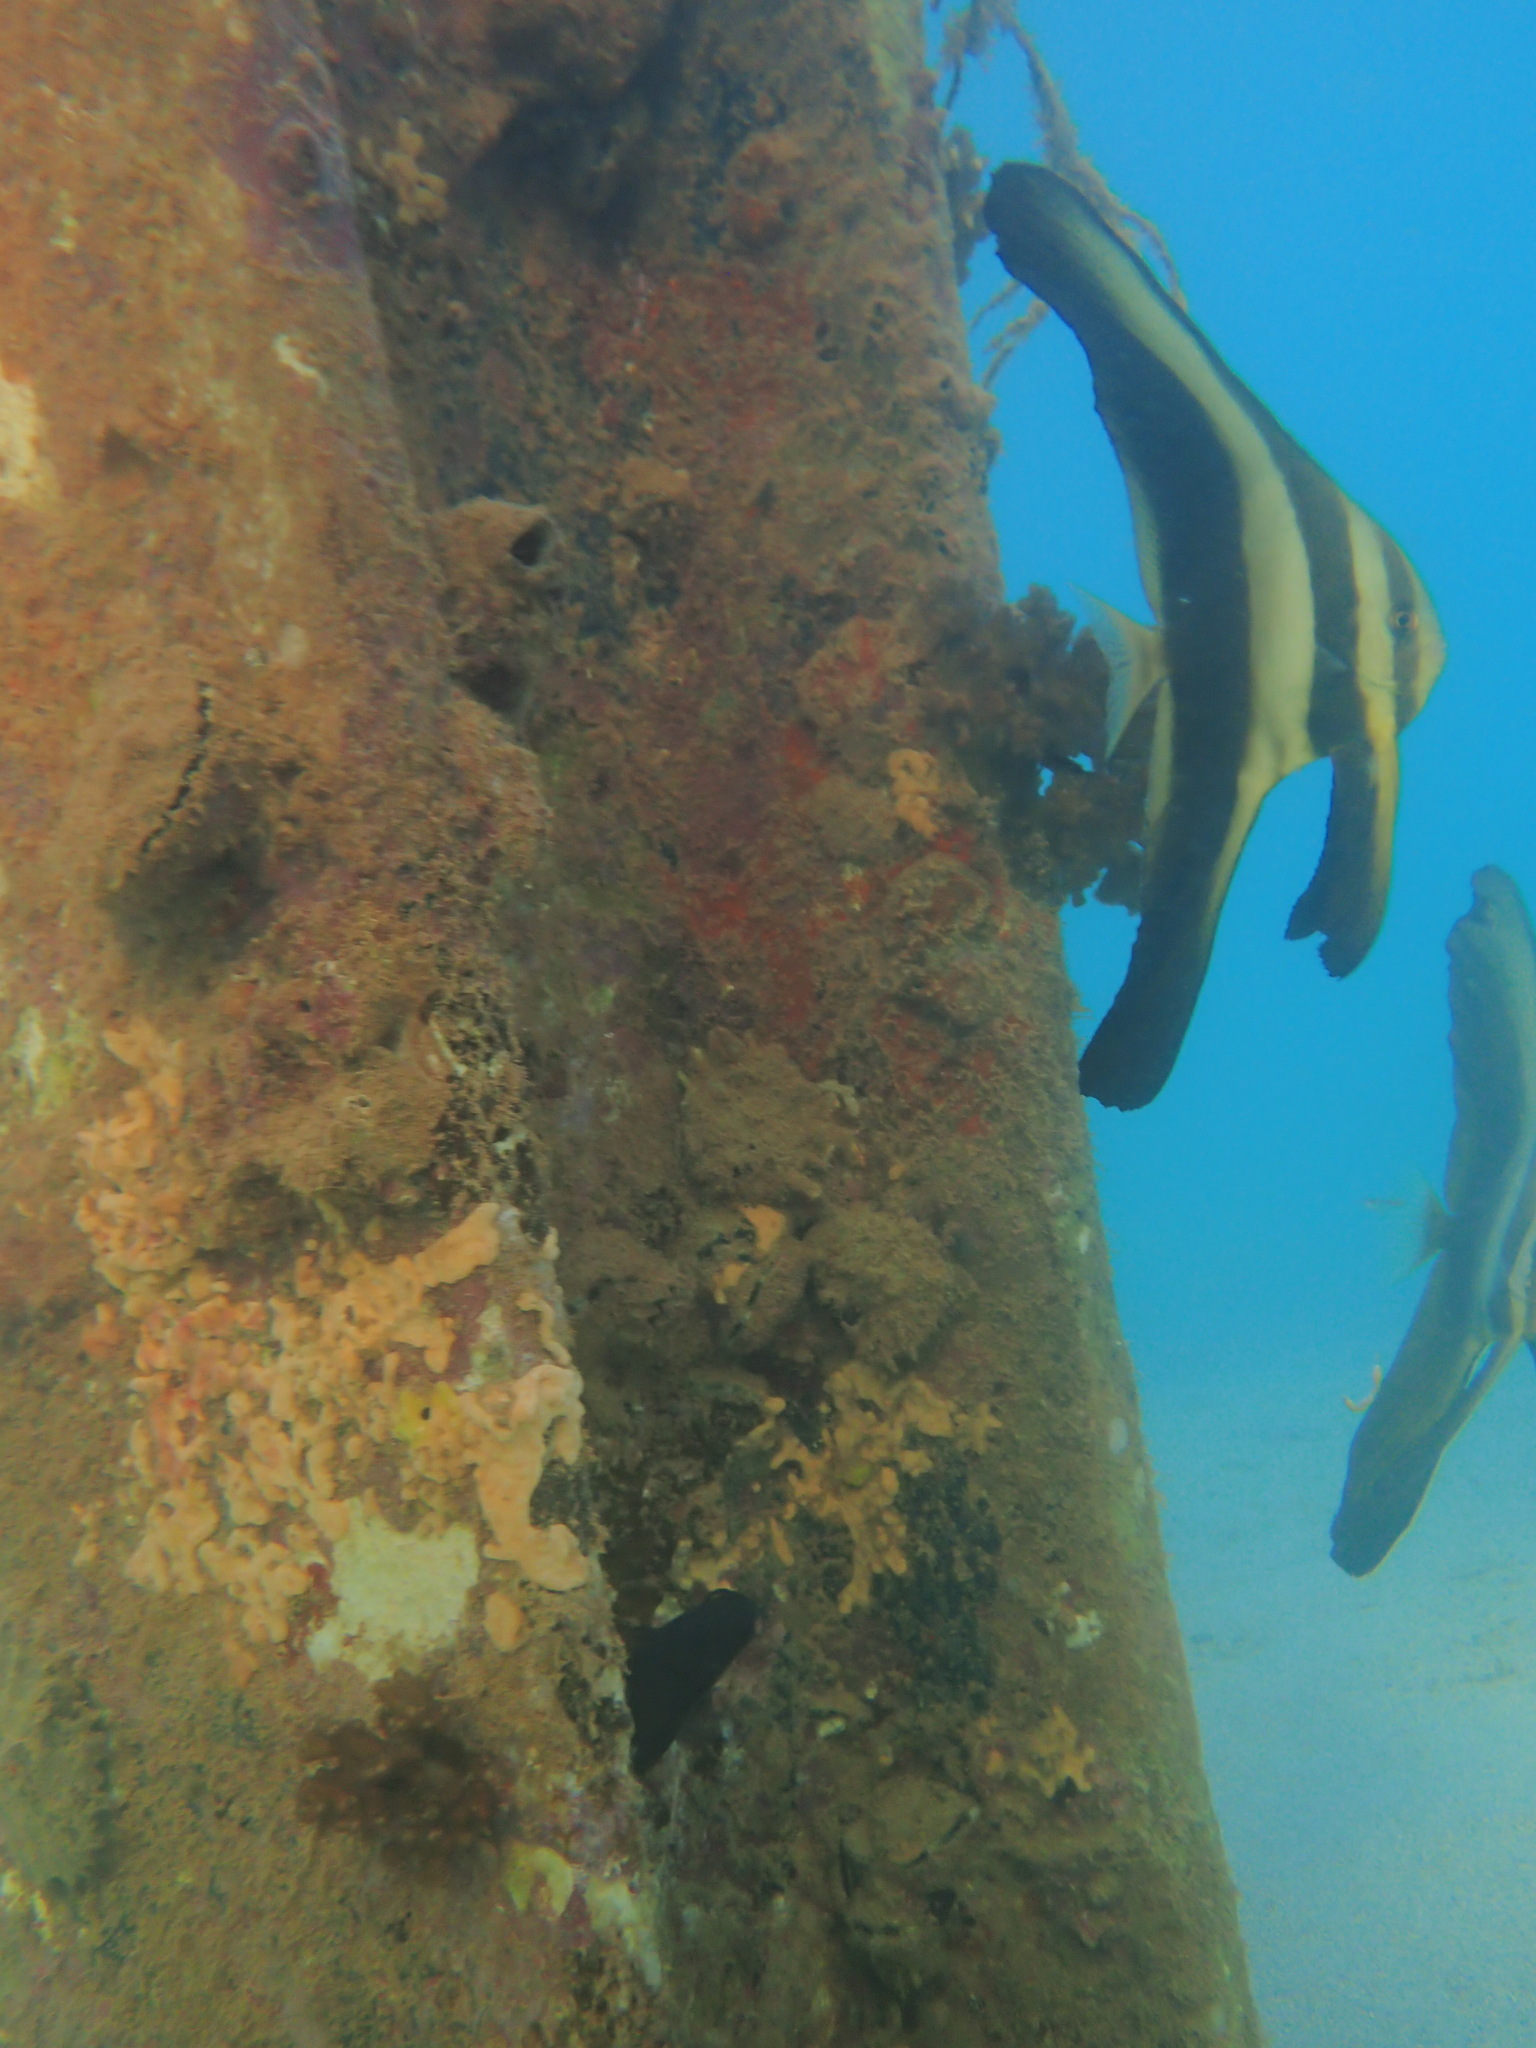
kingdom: Animalia
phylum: Chordata
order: Perciformes
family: Ephippidae
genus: Platax
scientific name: Platax teira
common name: Longfin baitfish
